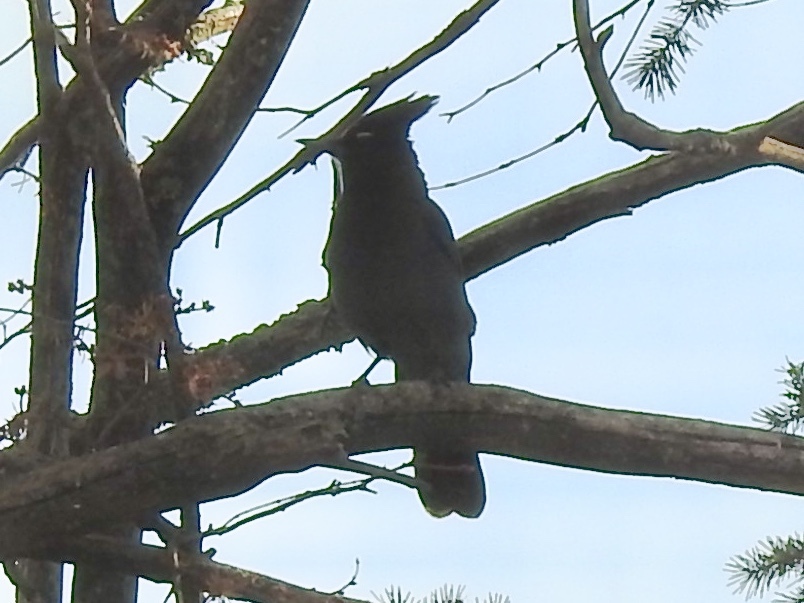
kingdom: Animalia
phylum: Chordata
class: Aves
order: Passeriformes
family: Corvidae
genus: Cyanocitta
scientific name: Cyanocitta stelleri
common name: Steller's jay
